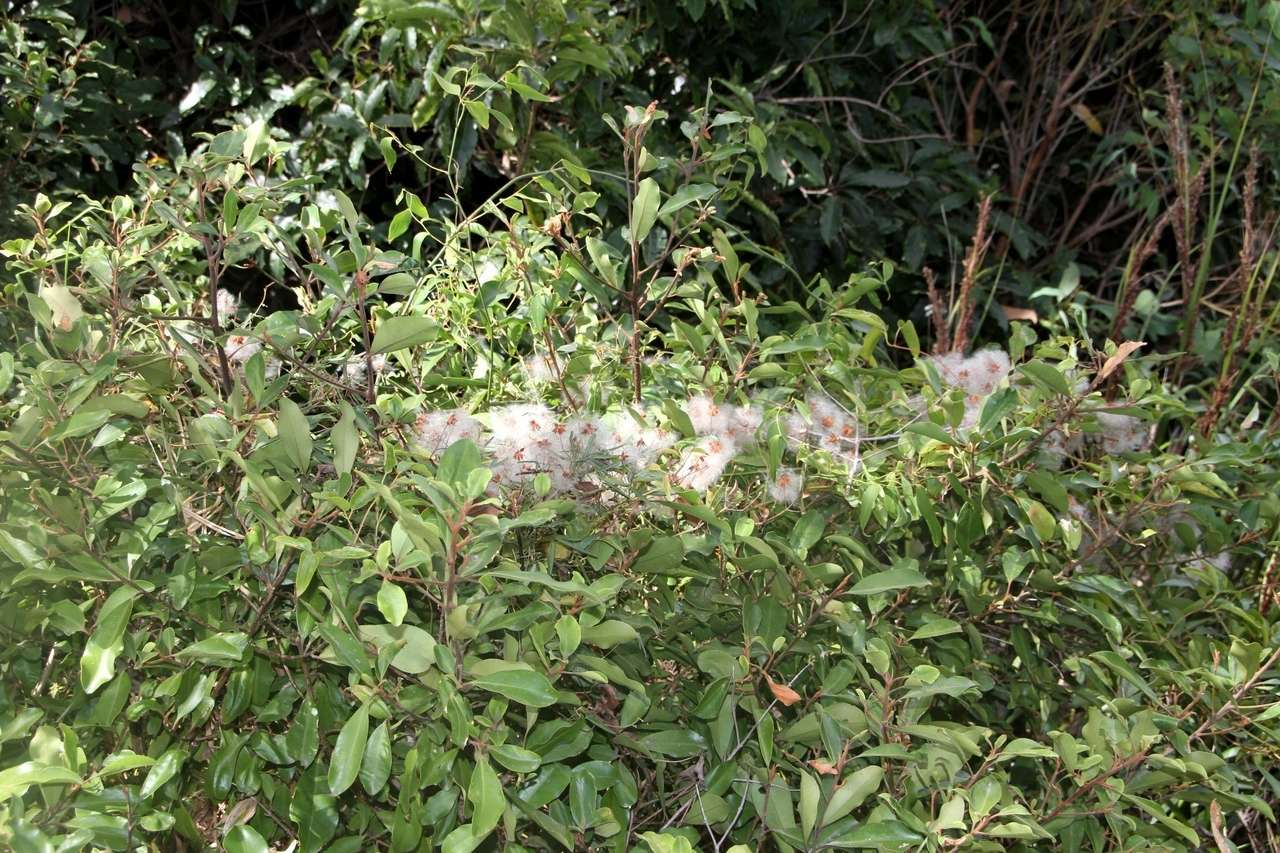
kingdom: Plantae
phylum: Tracheophyta
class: Magnoliopsida
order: Ranunculales
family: Ranunculaceae
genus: Clematis
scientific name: Clematis microphylla
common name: Headachevine
